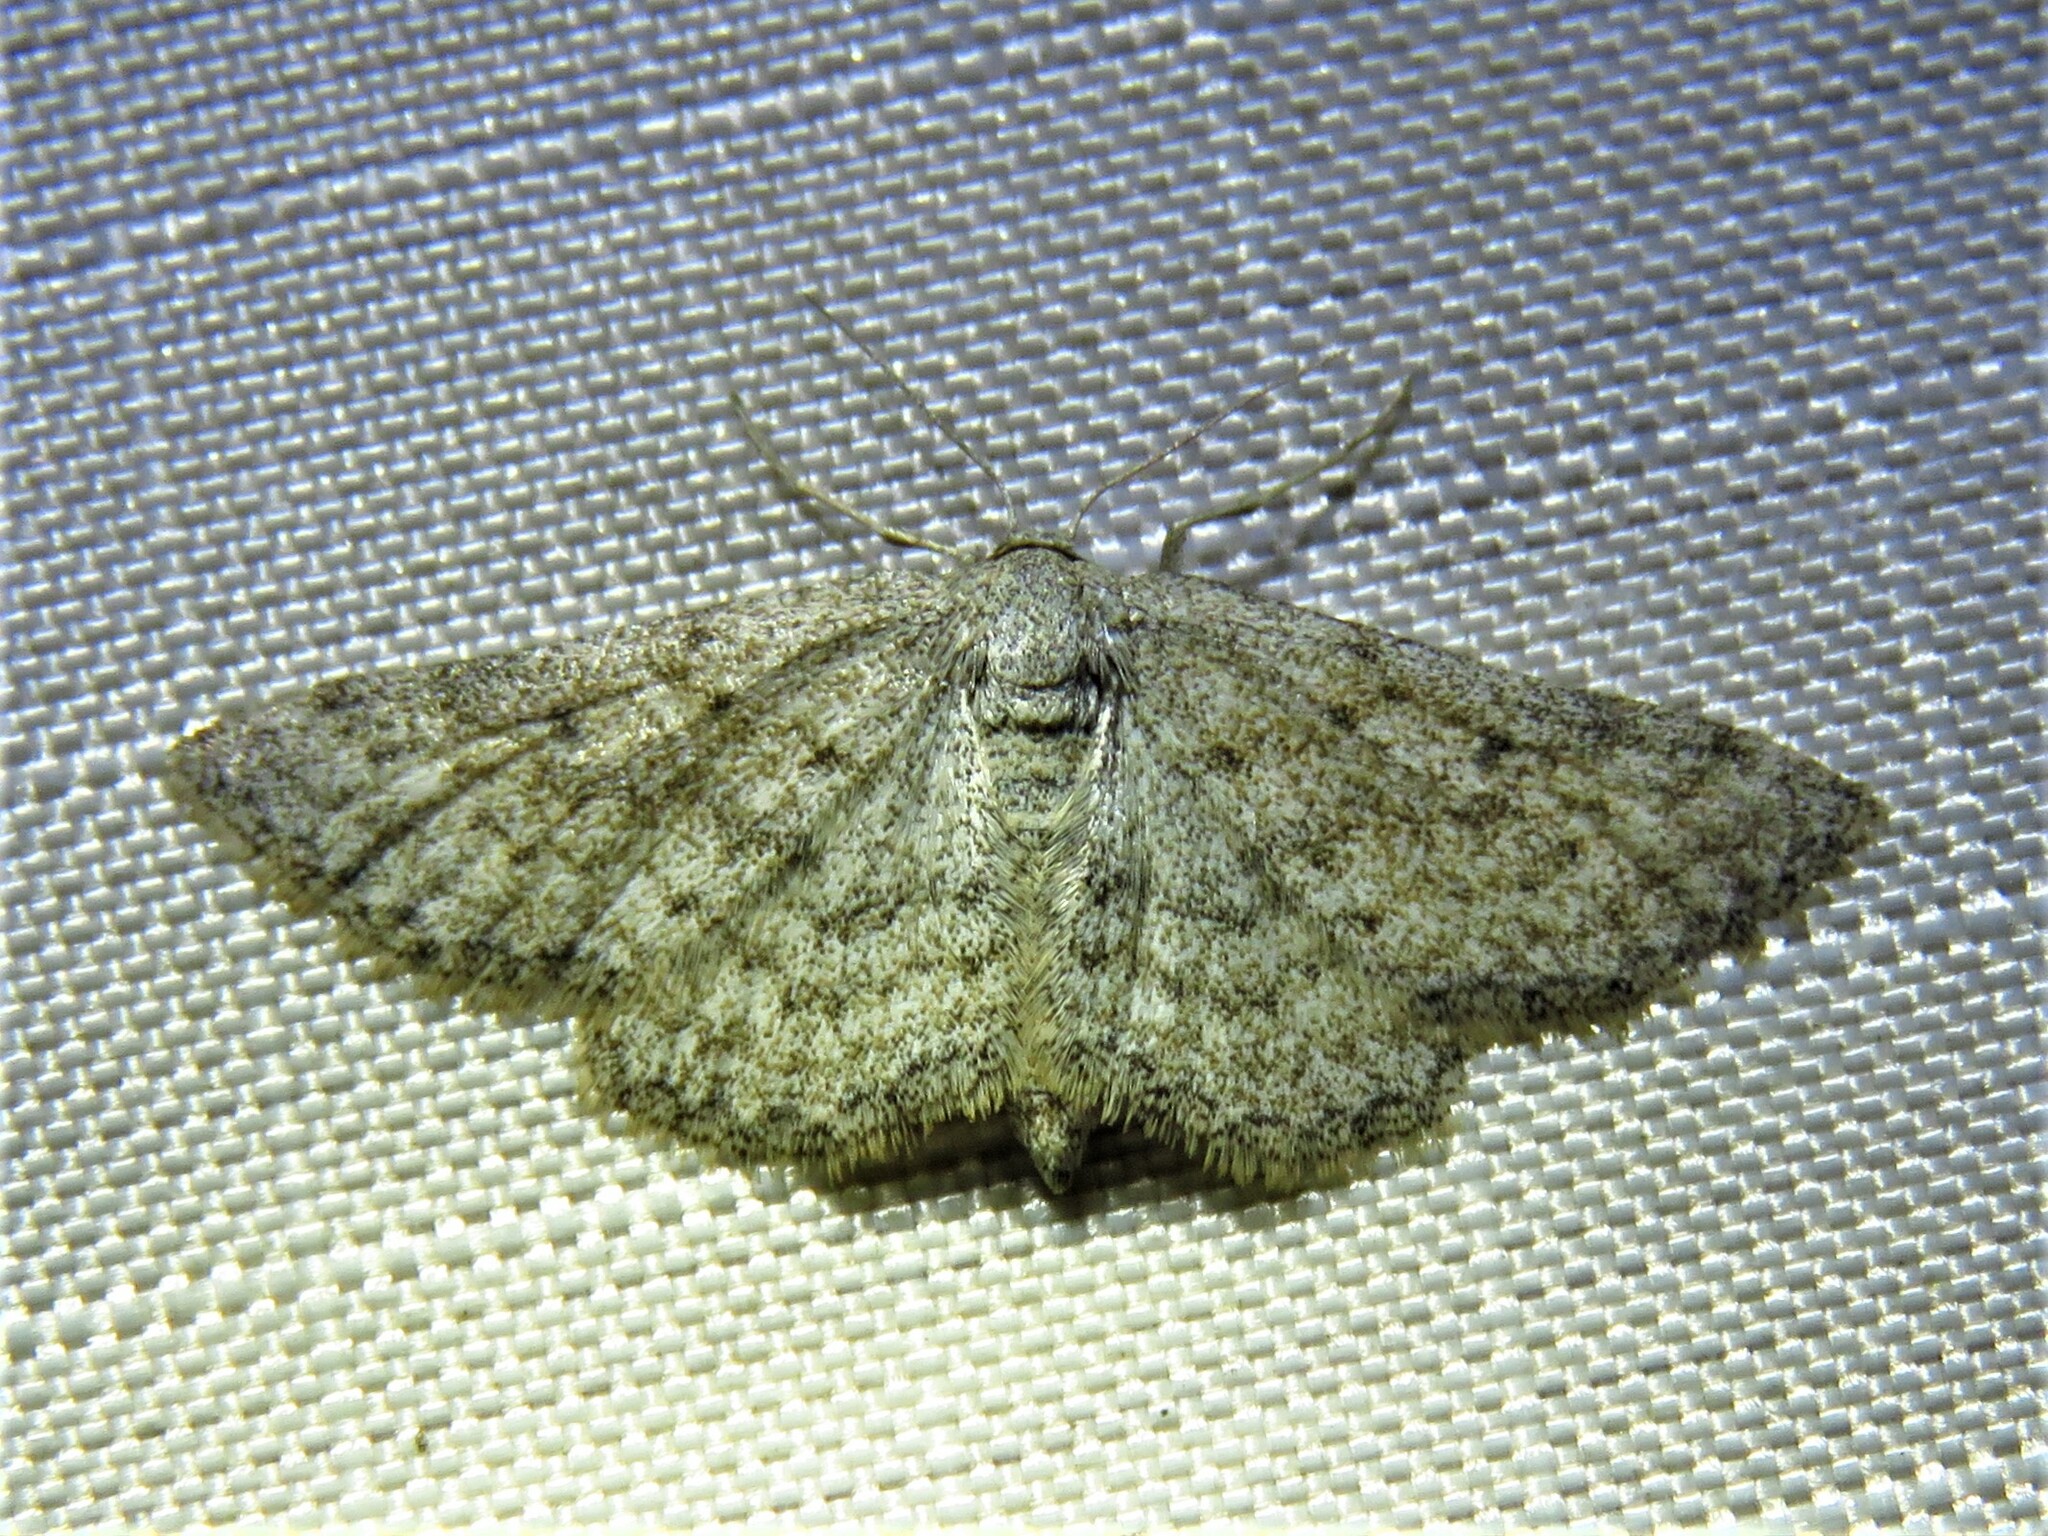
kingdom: Animalia
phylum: Arthropoda
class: Insecta
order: Lepidoptera
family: Geometridae
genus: Lobocleta
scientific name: Lobocleta ossularia
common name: Drab brown wave
